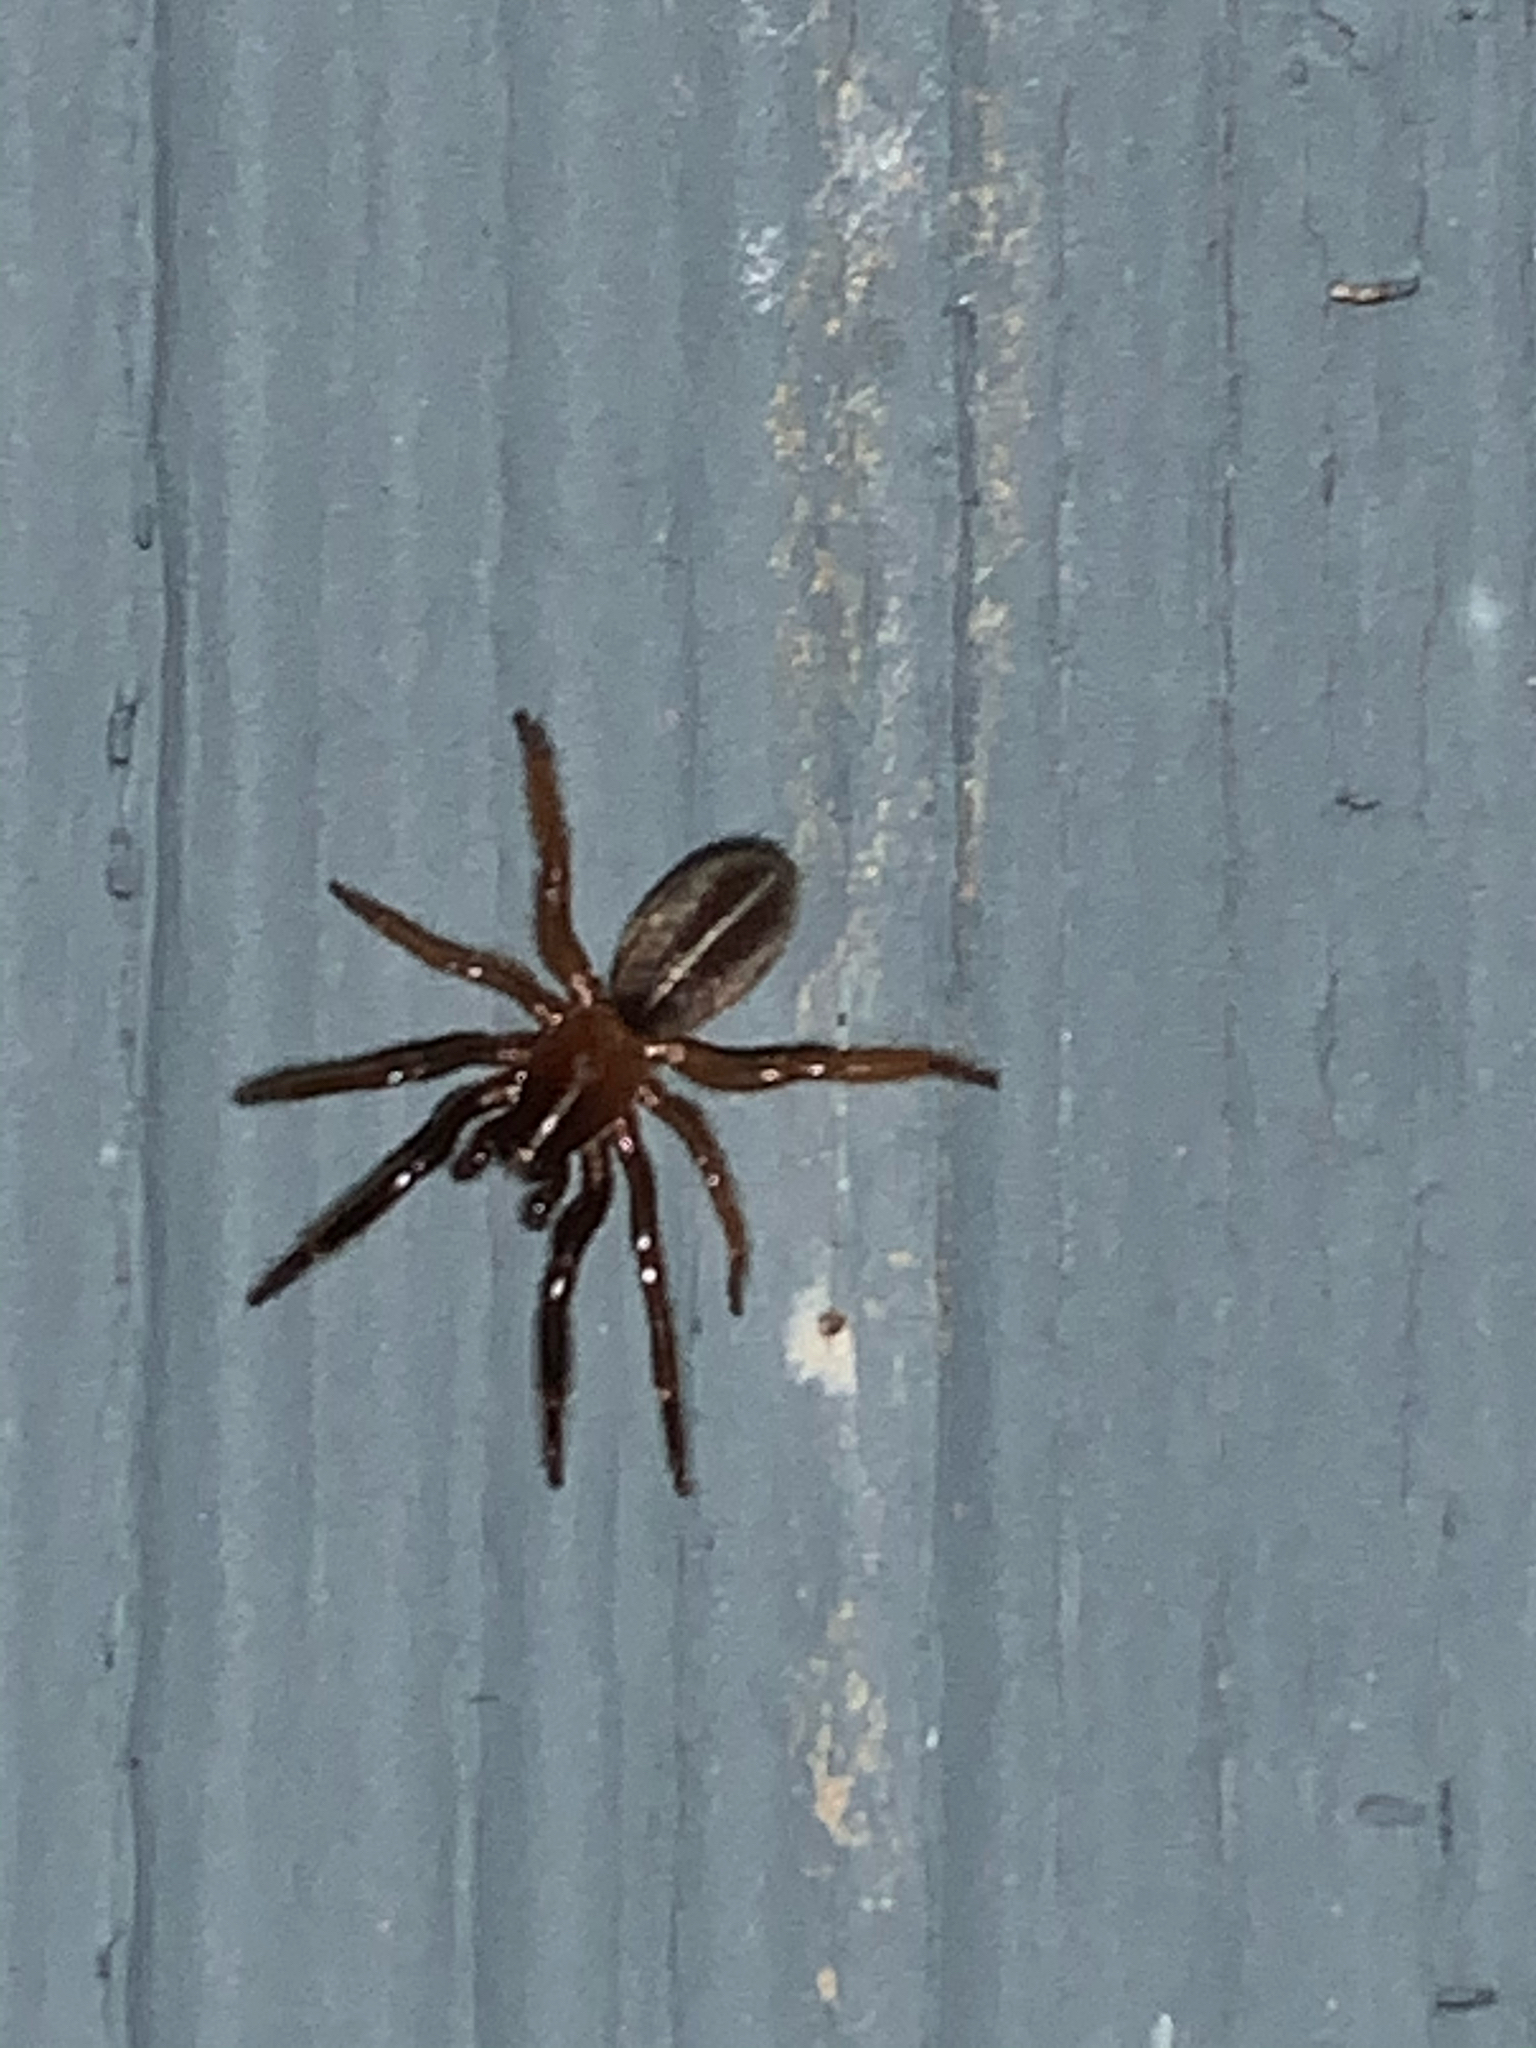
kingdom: Animalia
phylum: Arthropoda
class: Arachnida
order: Araneae
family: Segestriidae
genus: Ariadna
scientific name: Ariadna bicolor
